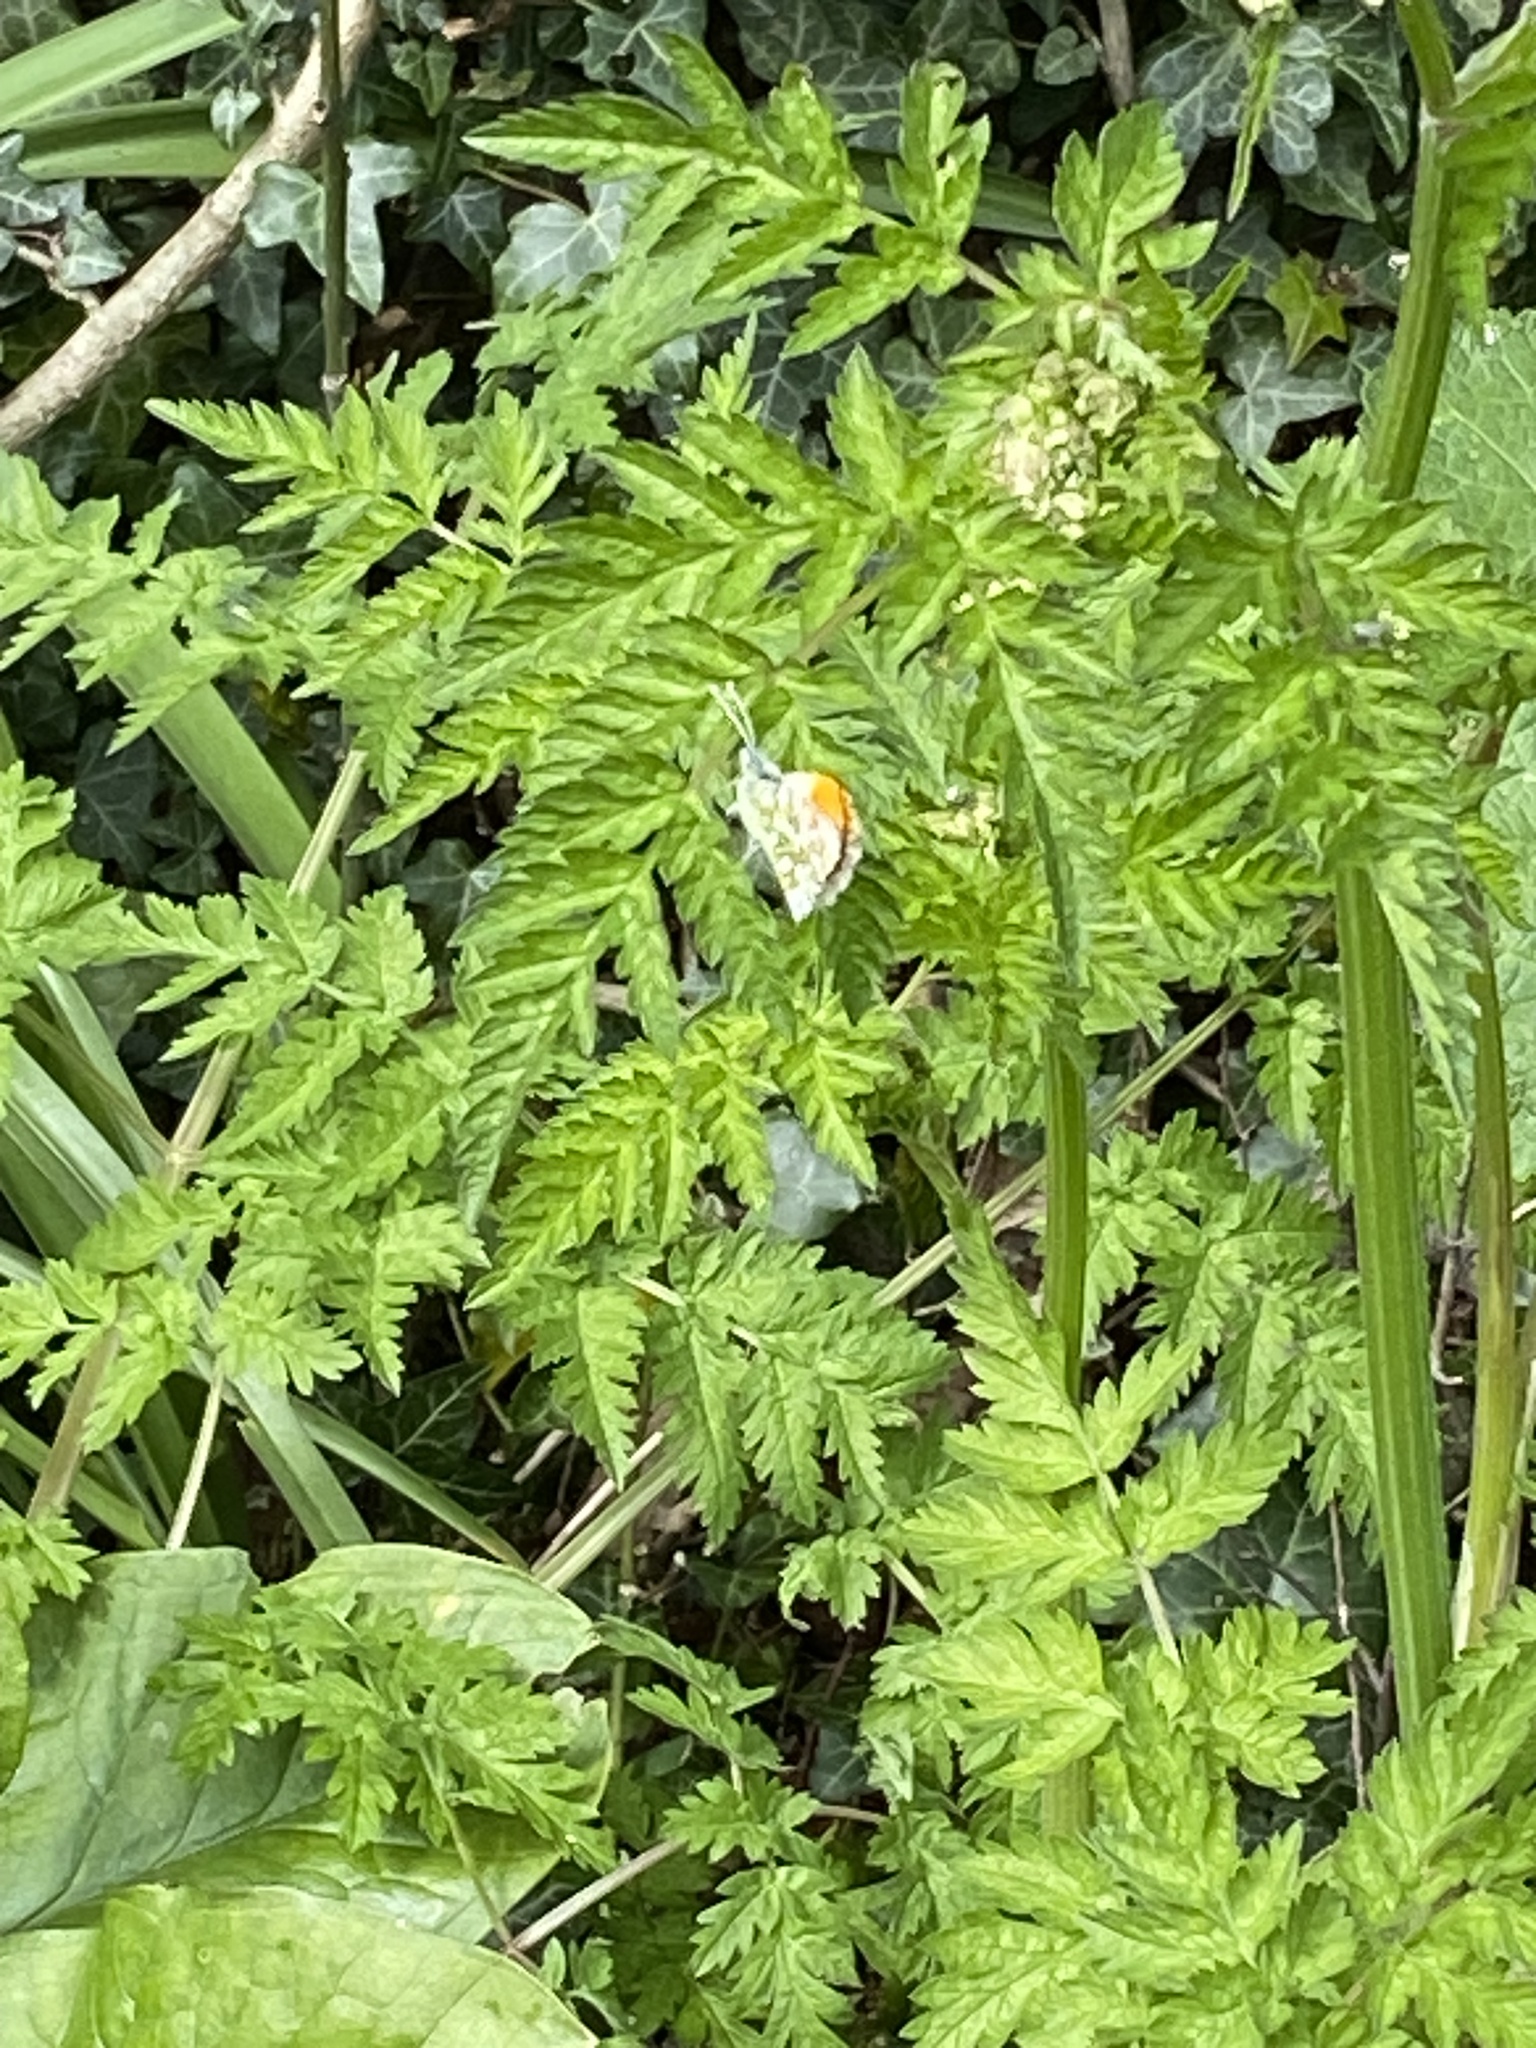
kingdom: Animalia
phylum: Arthropoda
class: Insecta
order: Lepidoptera
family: Pieridae
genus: Anthocharis
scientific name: Anthocharis cardamines
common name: Orange-tip
